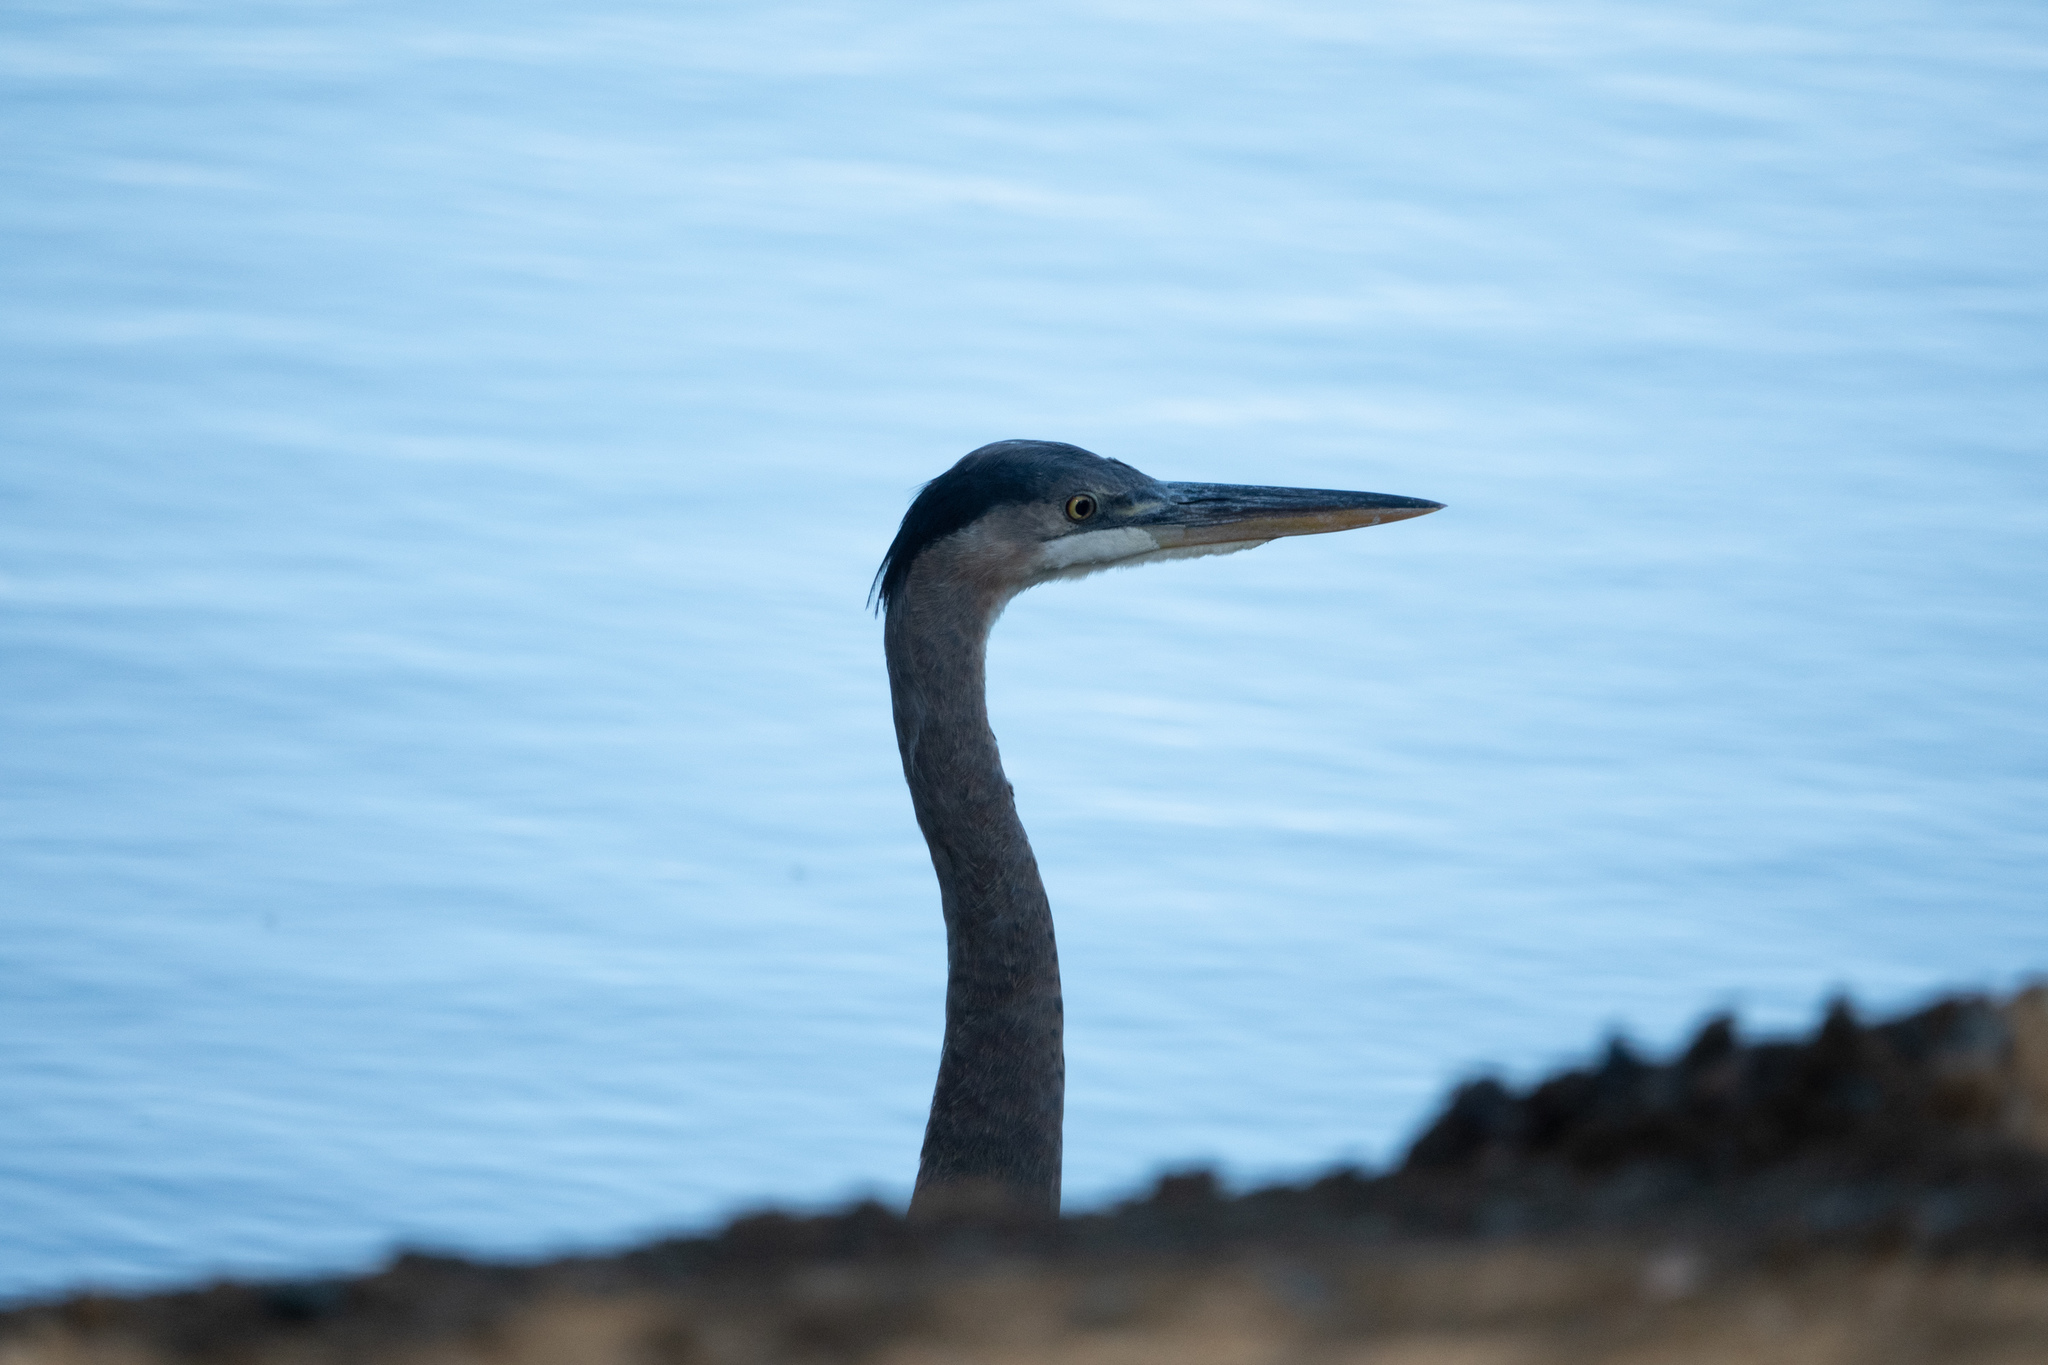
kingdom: Animalia
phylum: Chordata
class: Aves
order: Pelecaniformes
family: Ardeidae
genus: Ardea
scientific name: Ardea herodias
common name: Great blue heron
